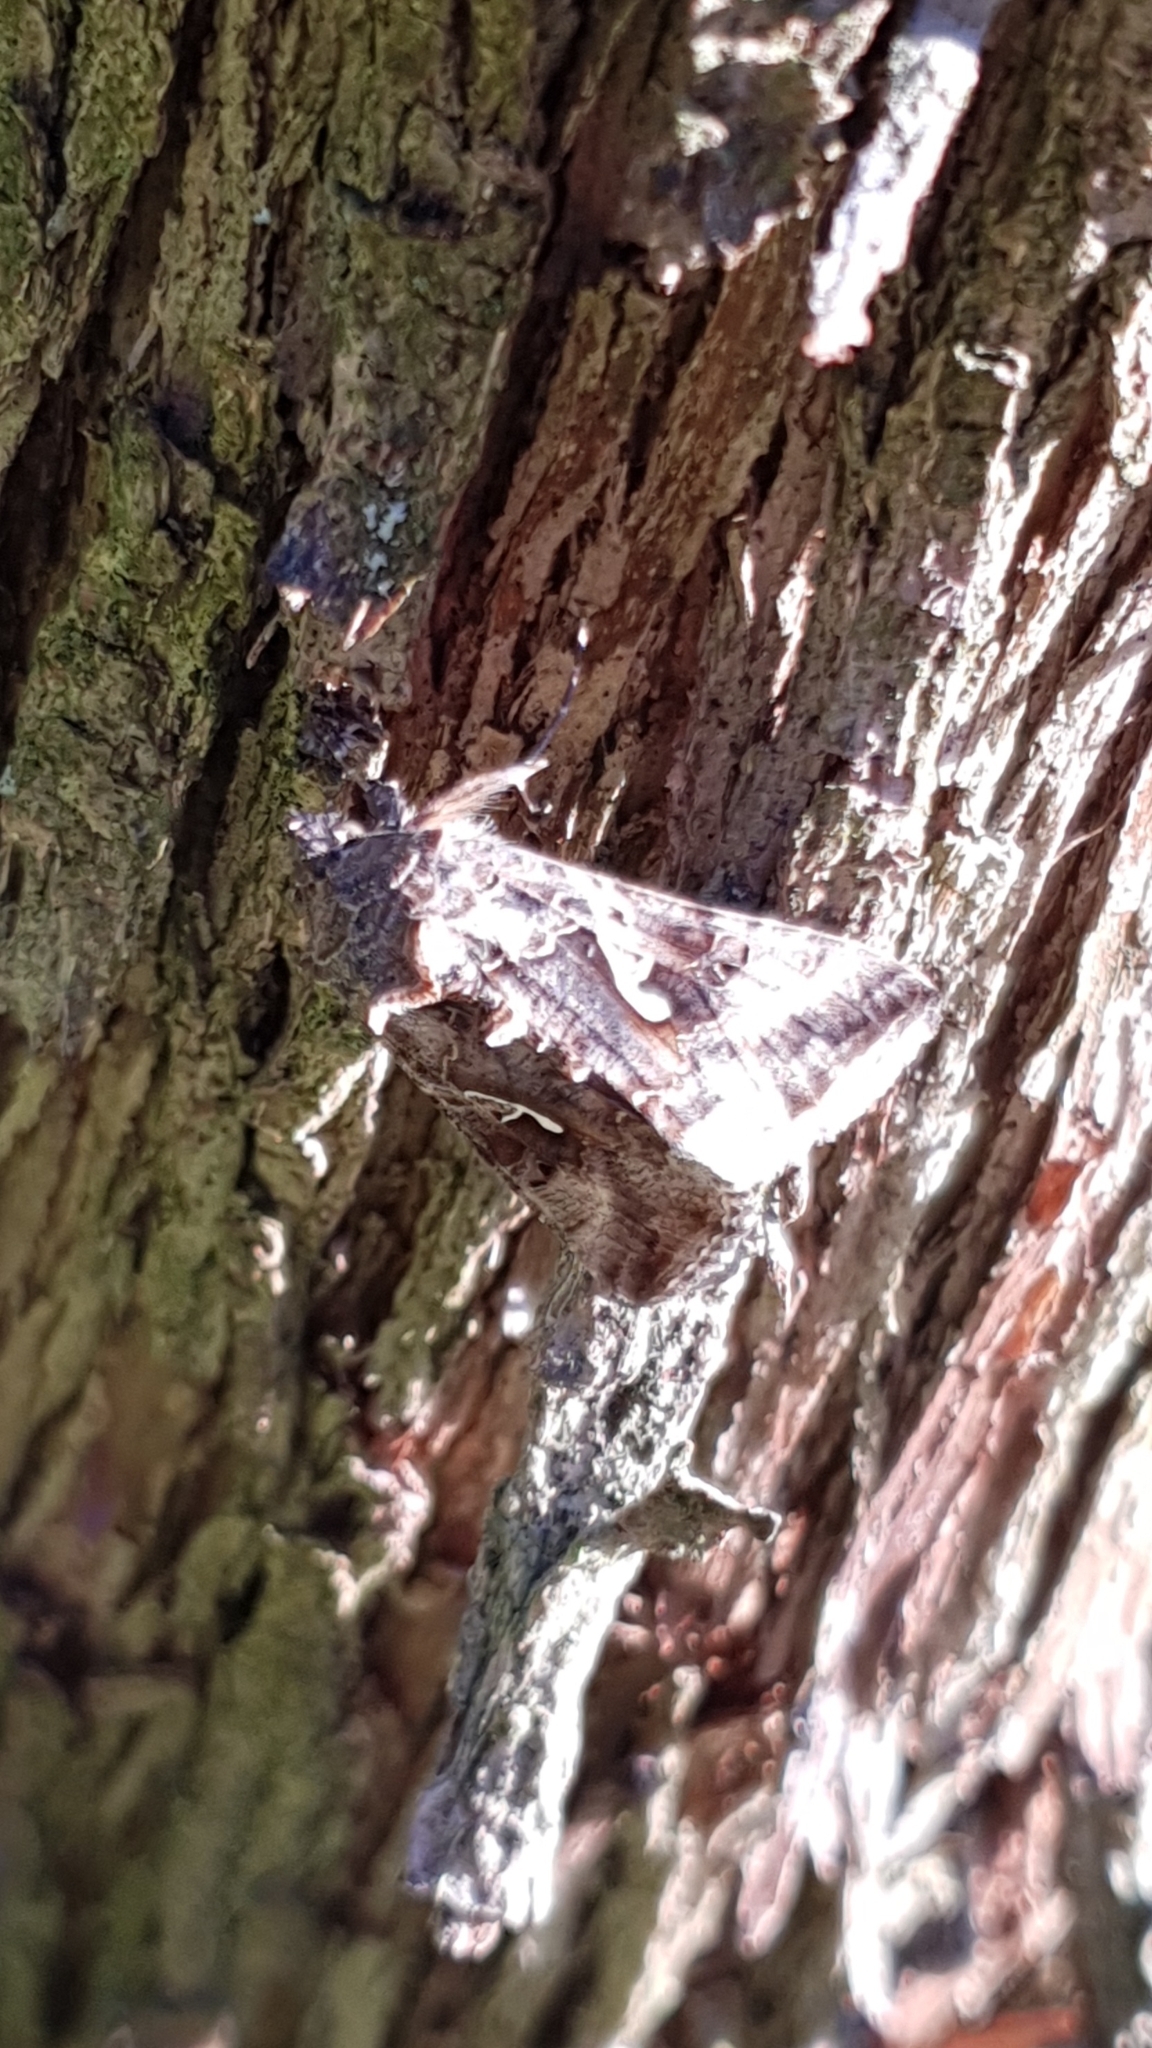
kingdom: Animalia
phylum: Arthropoda
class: Insecta
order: Lepidoptera
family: Noctuidae
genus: Autographa
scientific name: Autographa gamma
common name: Silver y
